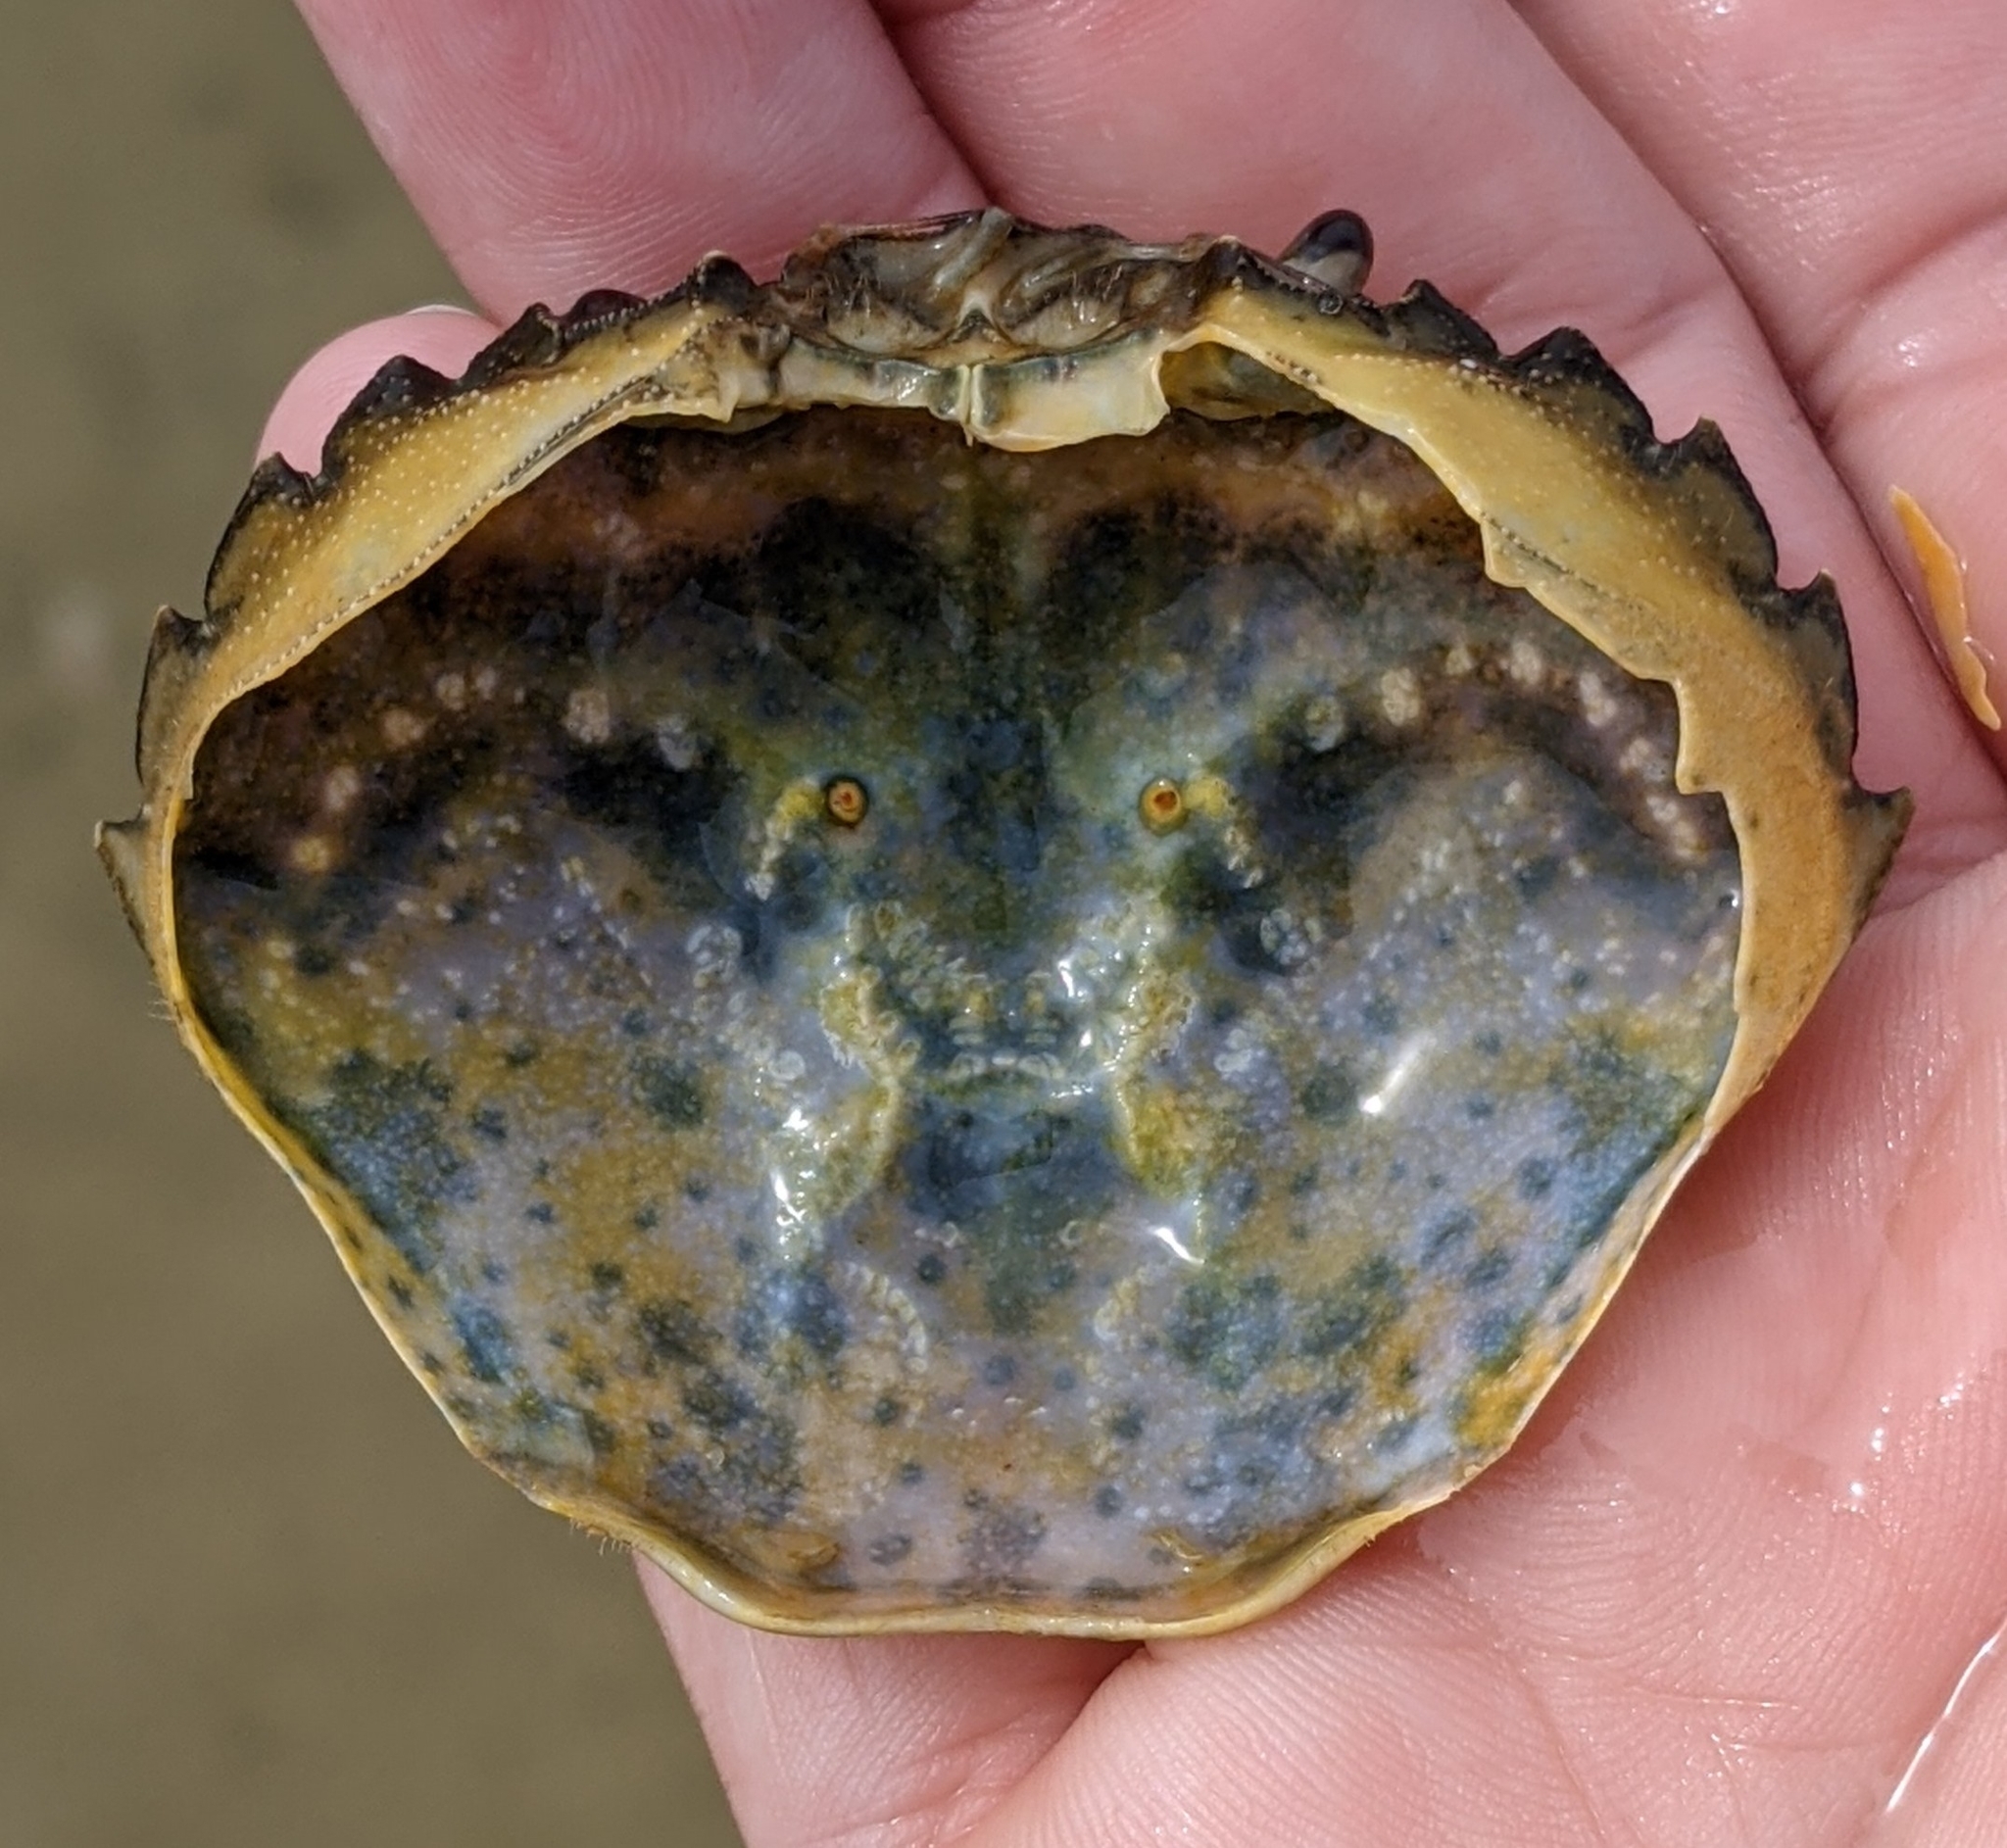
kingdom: Animalia
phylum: Arthropoda
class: Malacostraca
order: Decapoda
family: Carcinidae
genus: Carcinus
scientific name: Carcinus maenas
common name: European green crab
